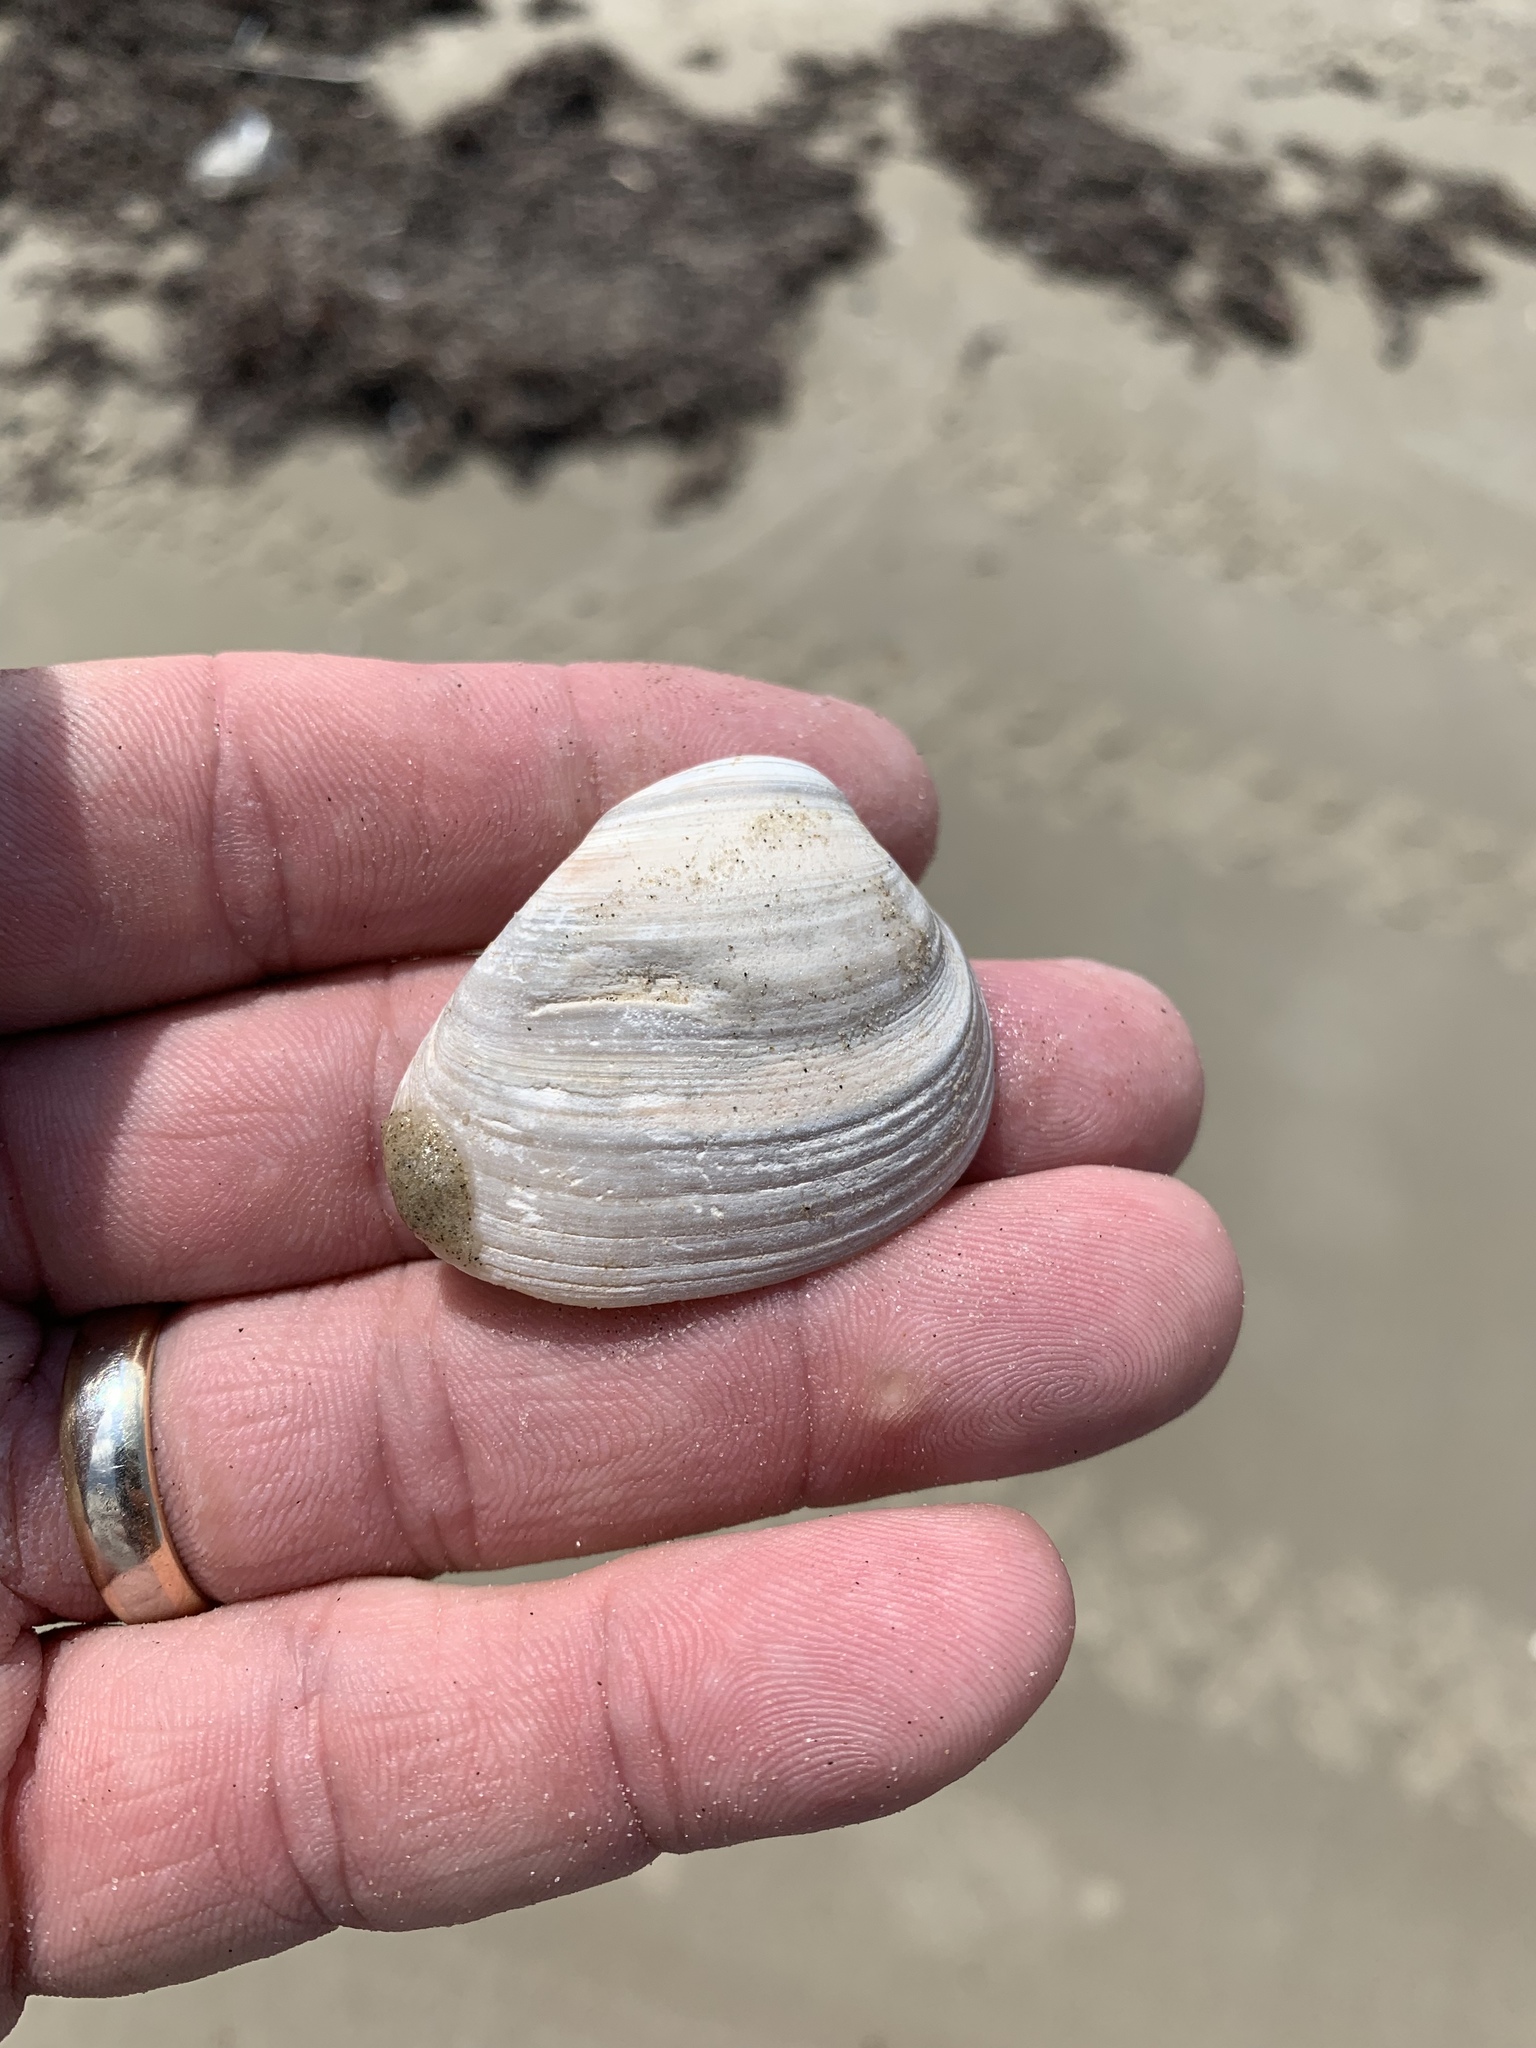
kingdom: Animalia
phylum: Mollusca
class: Bivalvia
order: Venerida
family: Mactridae
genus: Rangia
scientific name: Rangia cuneata
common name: Atlantic rangia
